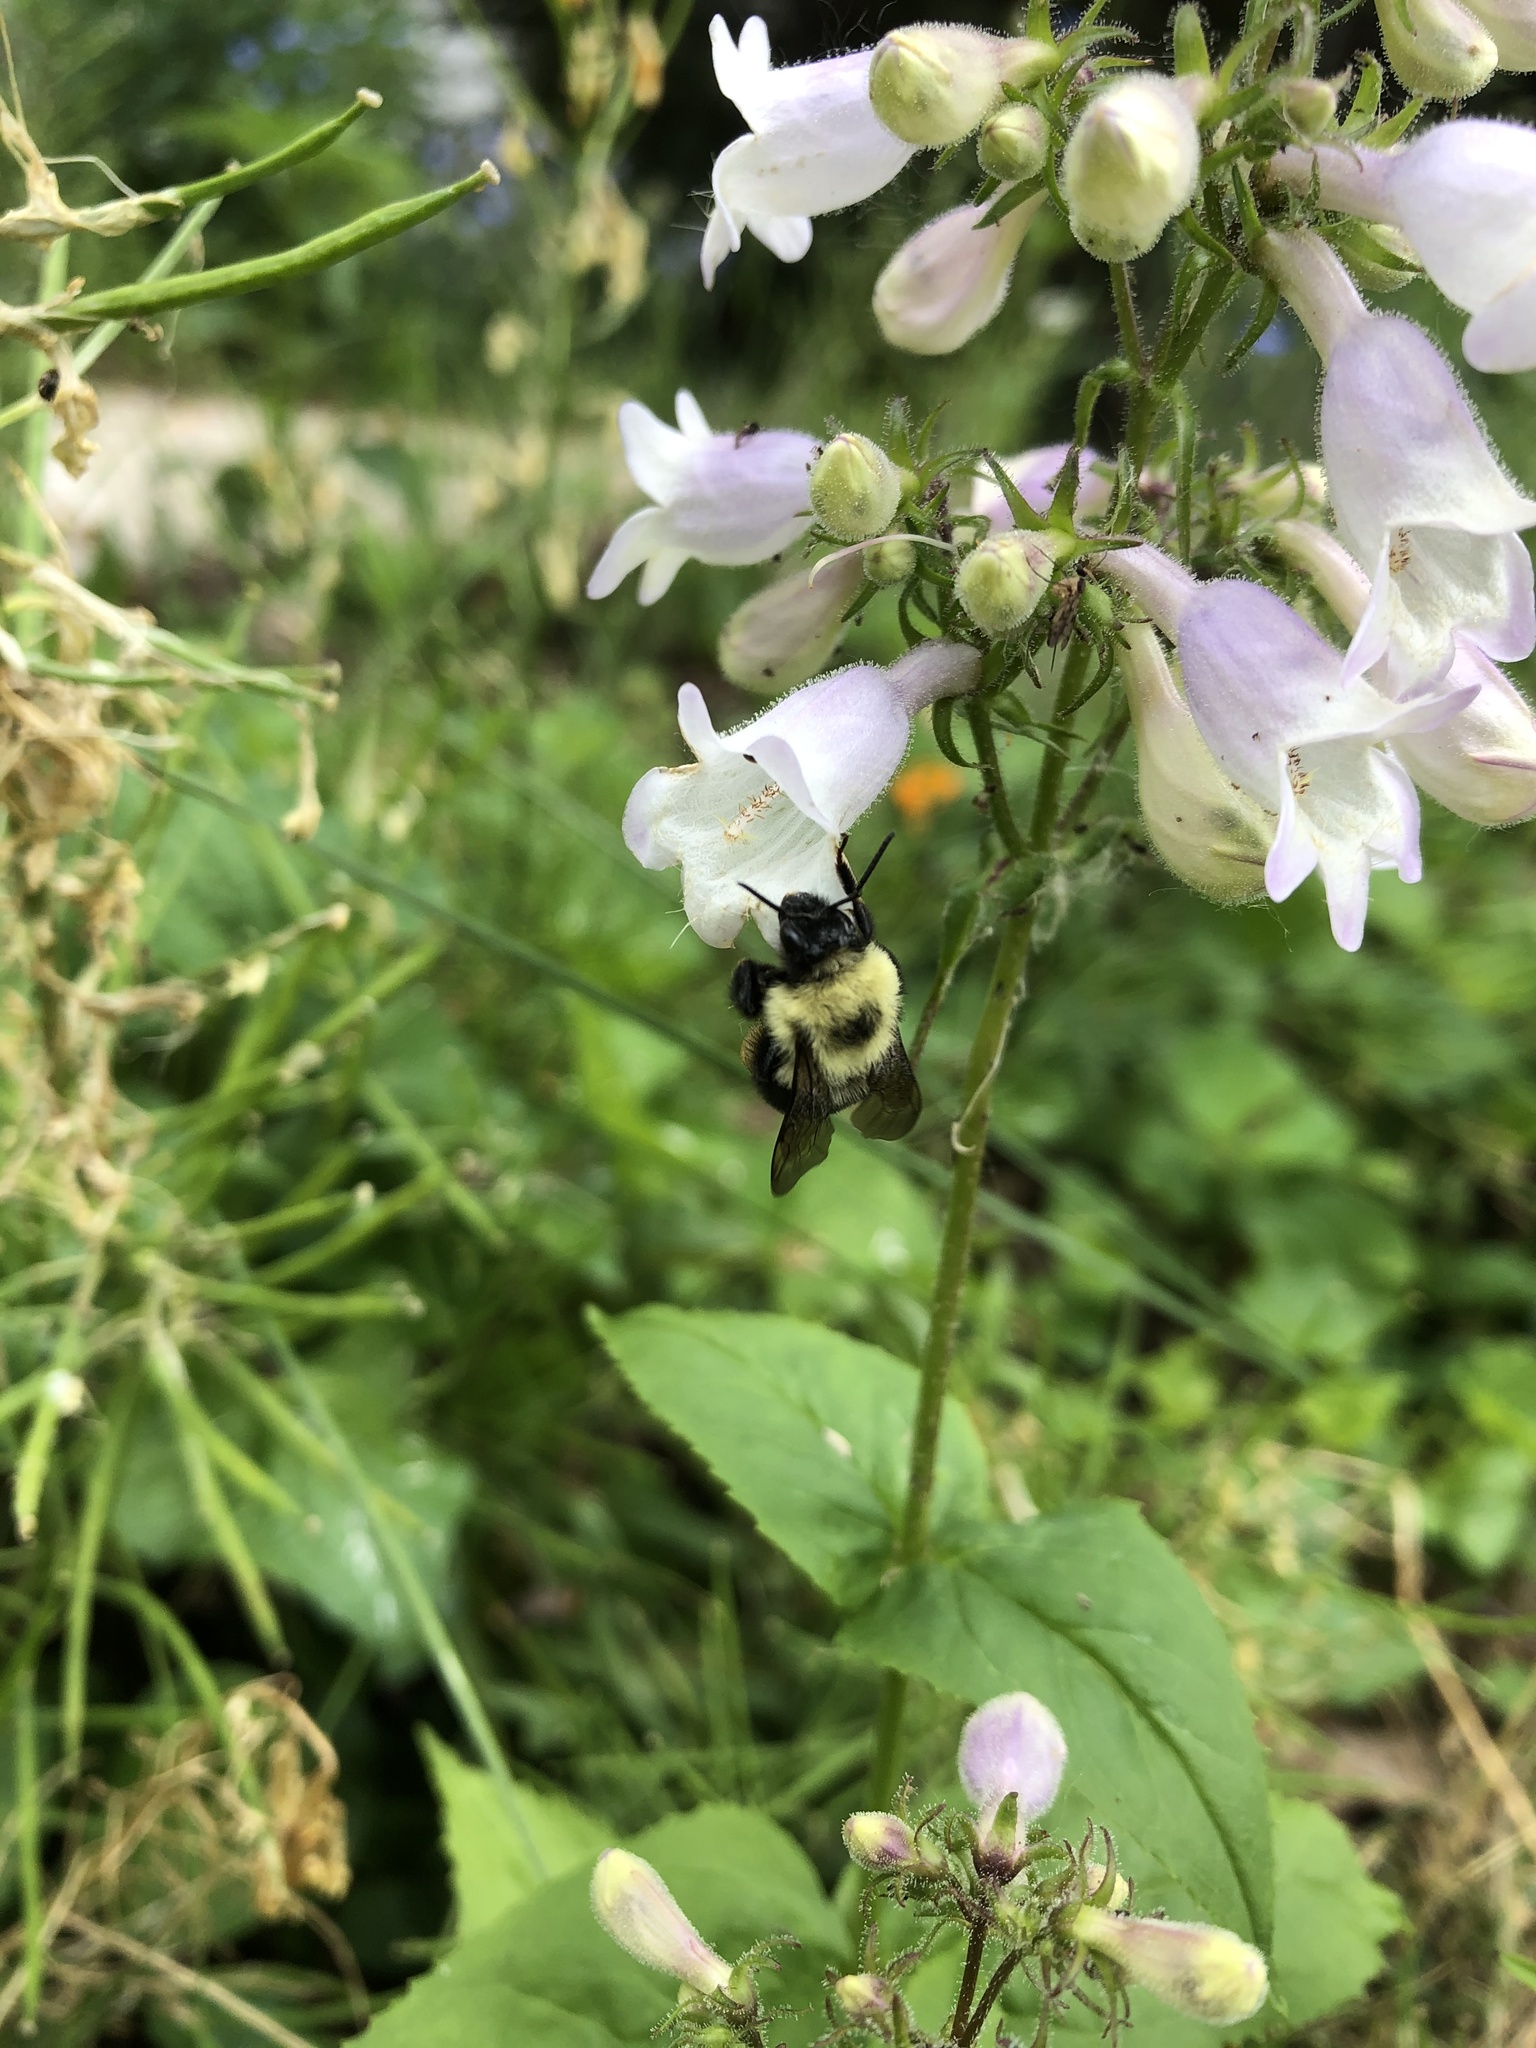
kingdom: Animalia
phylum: Arthropoda
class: Insecta
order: Hymenoptera
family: Apidae
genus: Bombus
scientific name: Bombus bimaculatus
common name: Two-spotted bumble bee
